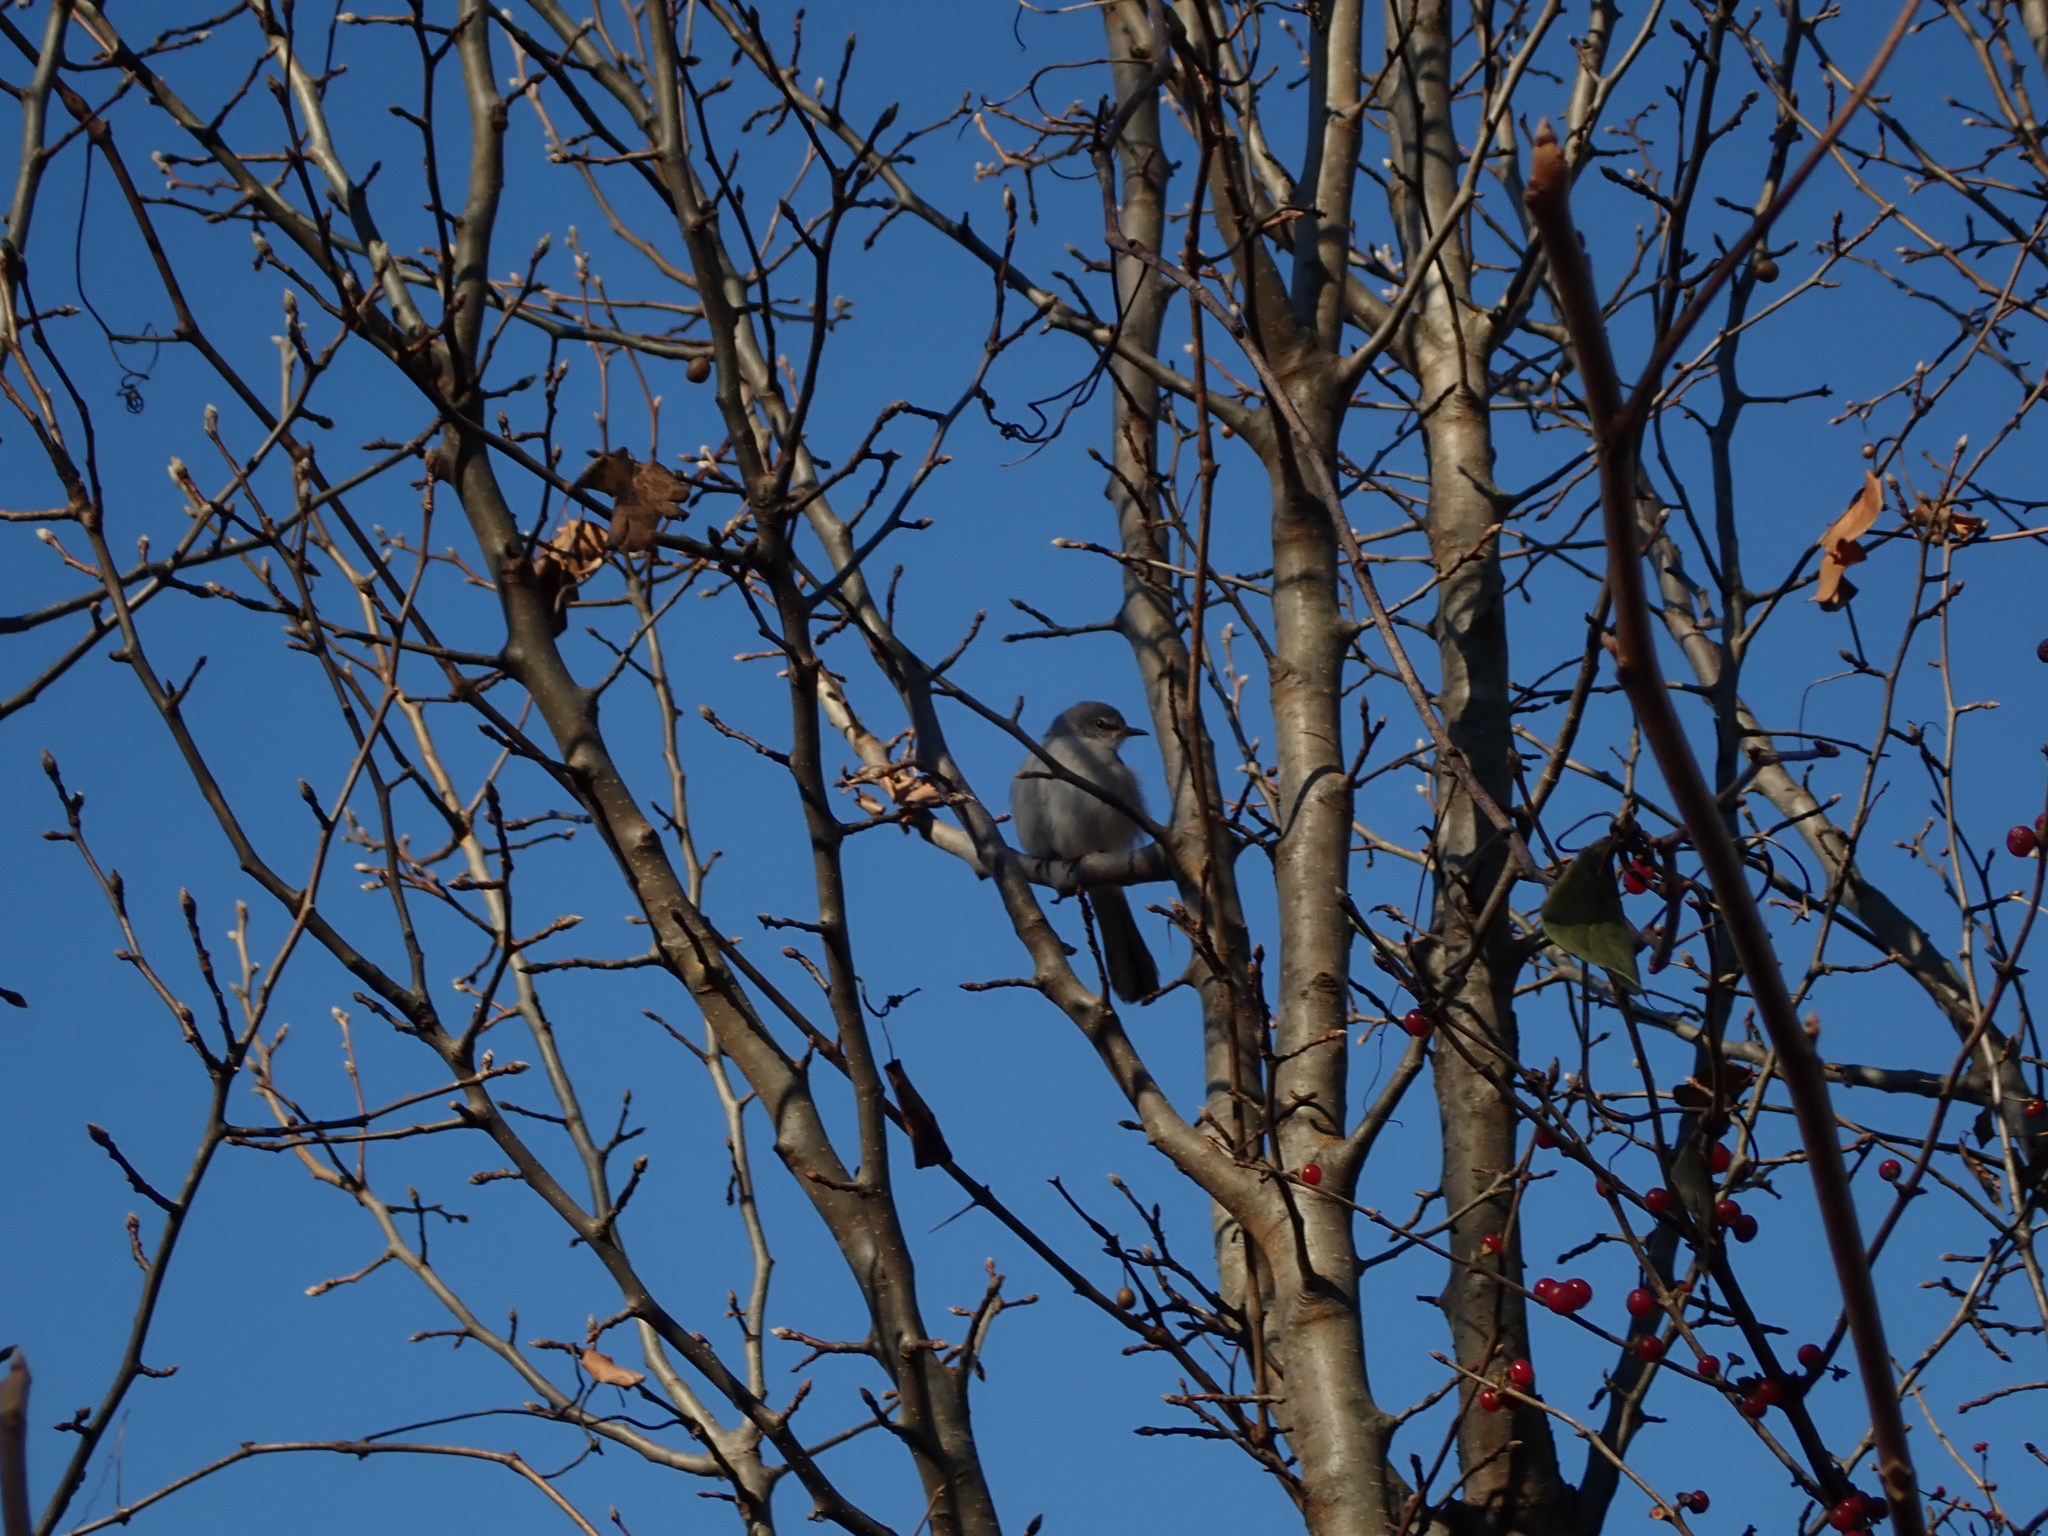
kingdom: Animalia
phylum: Chordata
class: Aves
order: Passeriformes
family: Mimidae
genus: Mimus
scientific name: Mimus polyglottos
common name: Northern mockingbird
